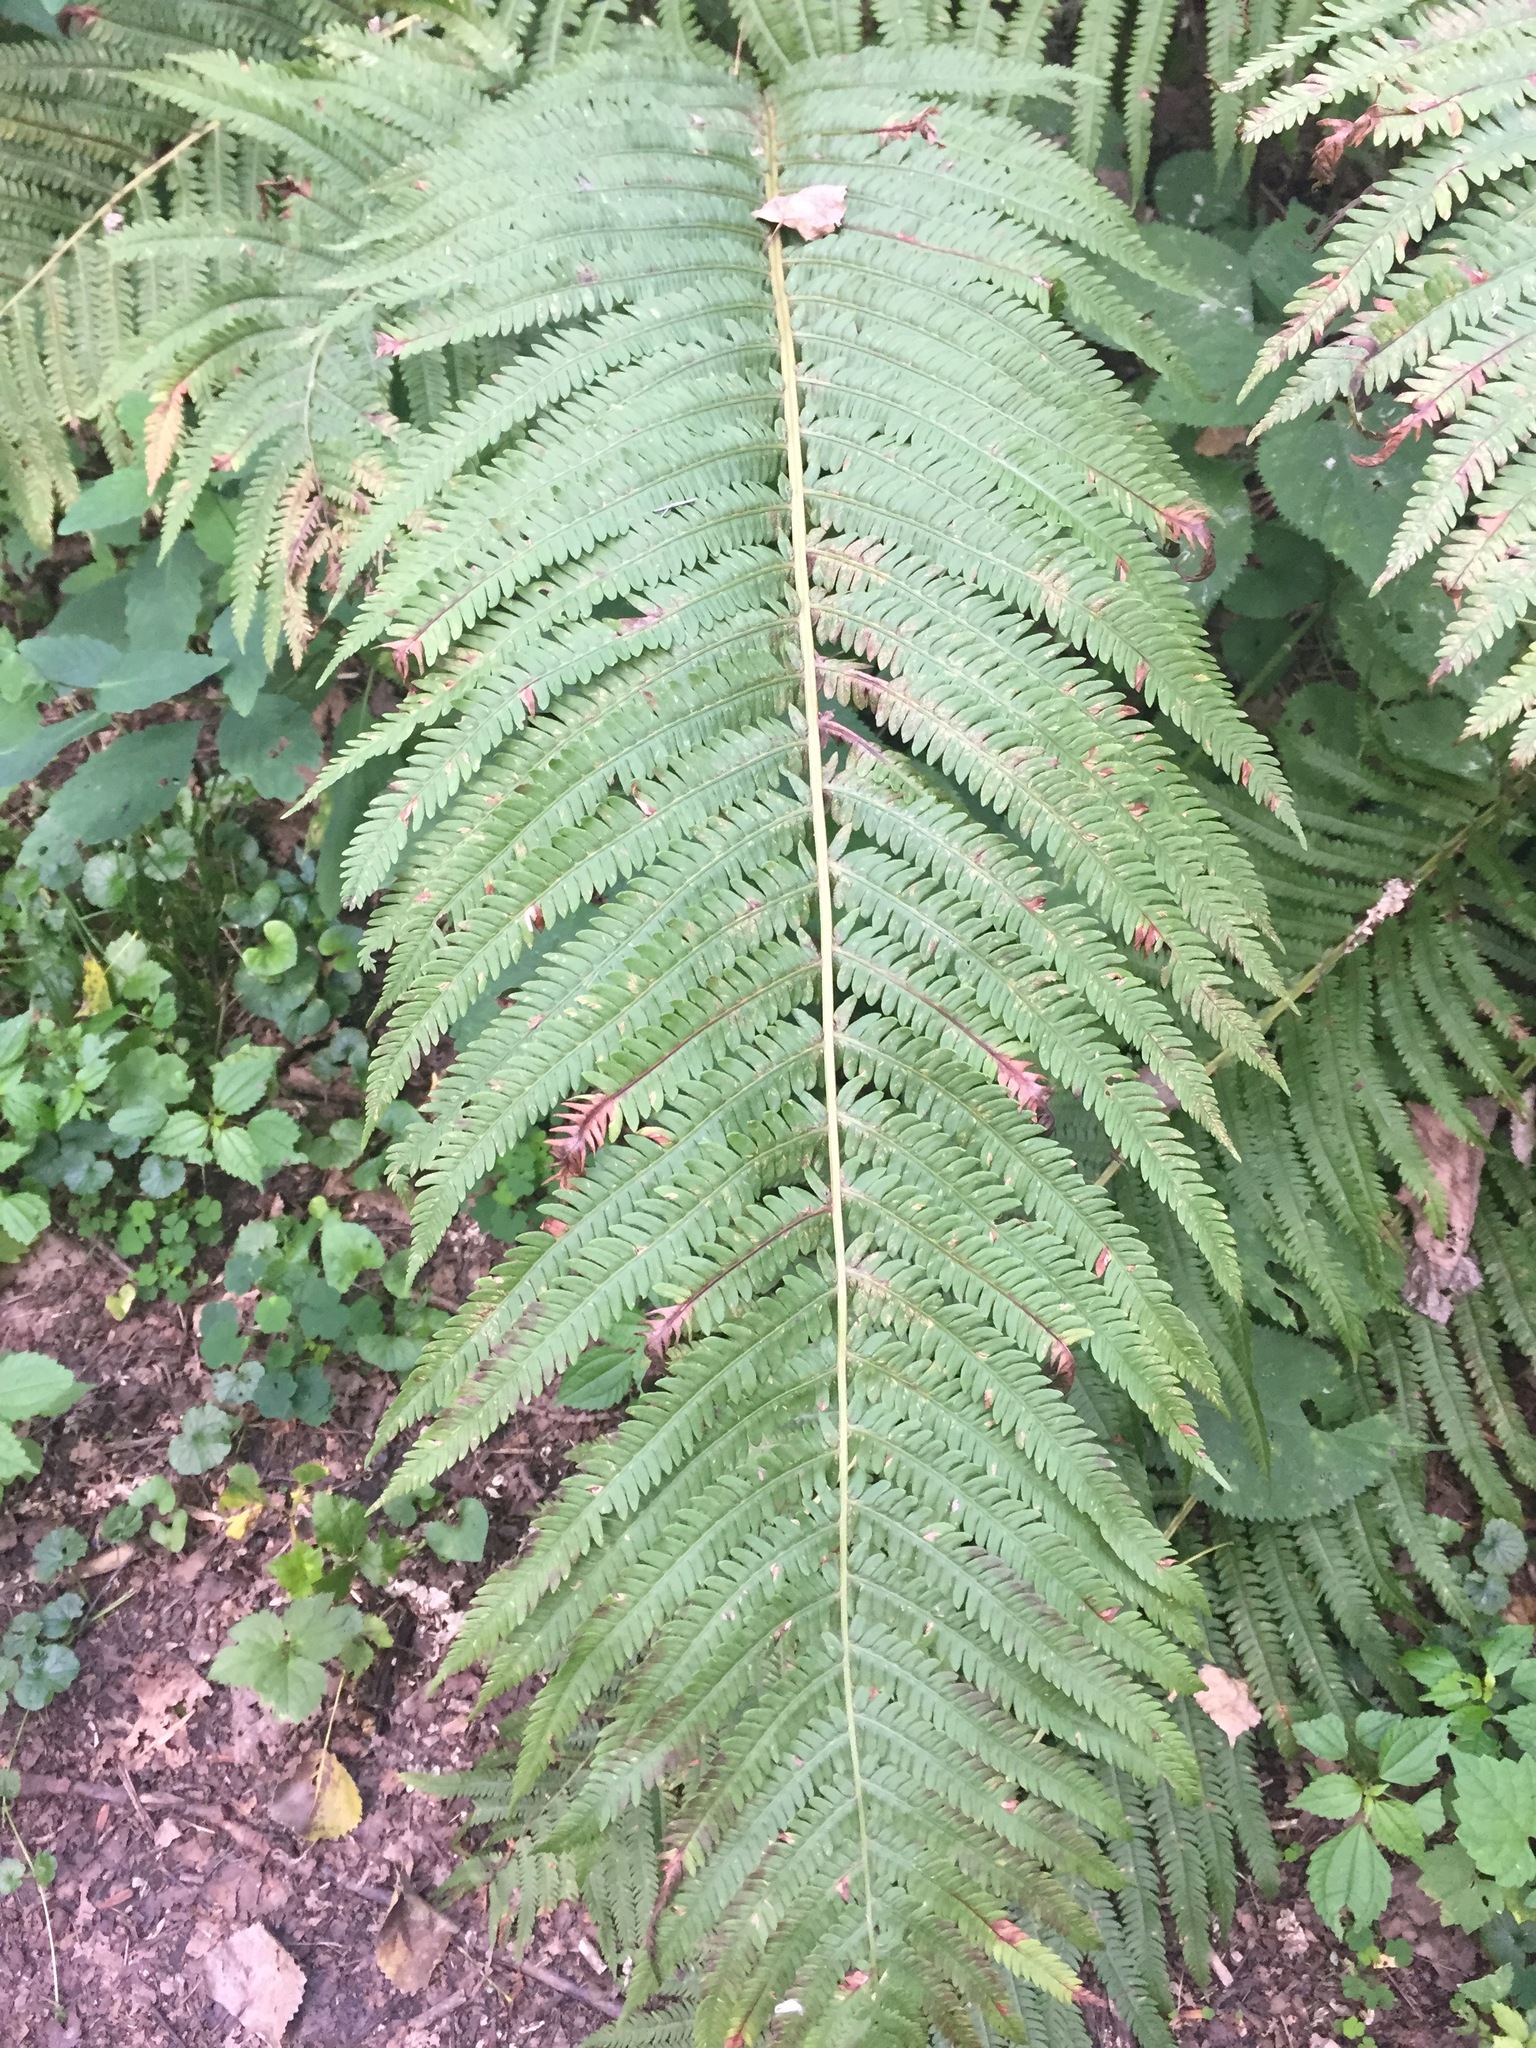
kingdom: Plantae
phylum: Tracheophyta
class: Polypodiopsida
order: Polypodiales
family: Onocleaceae
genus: Matteuccia
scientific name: Matteuccia struthiopteris
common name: Ostrich fern
